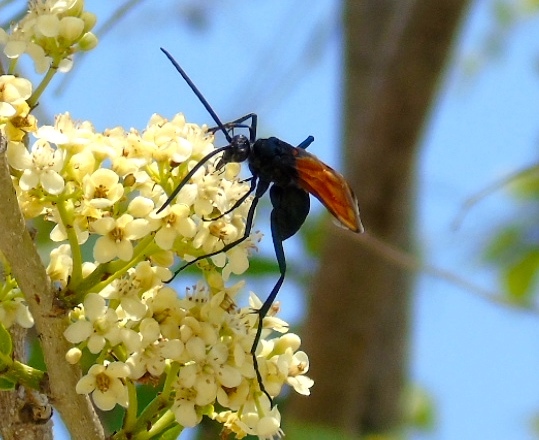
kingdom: Animalia
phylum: Arthropoda
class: Insecta
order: Hymenoptera
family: Pompilidae
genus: Pepsis
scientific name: Pepsis
